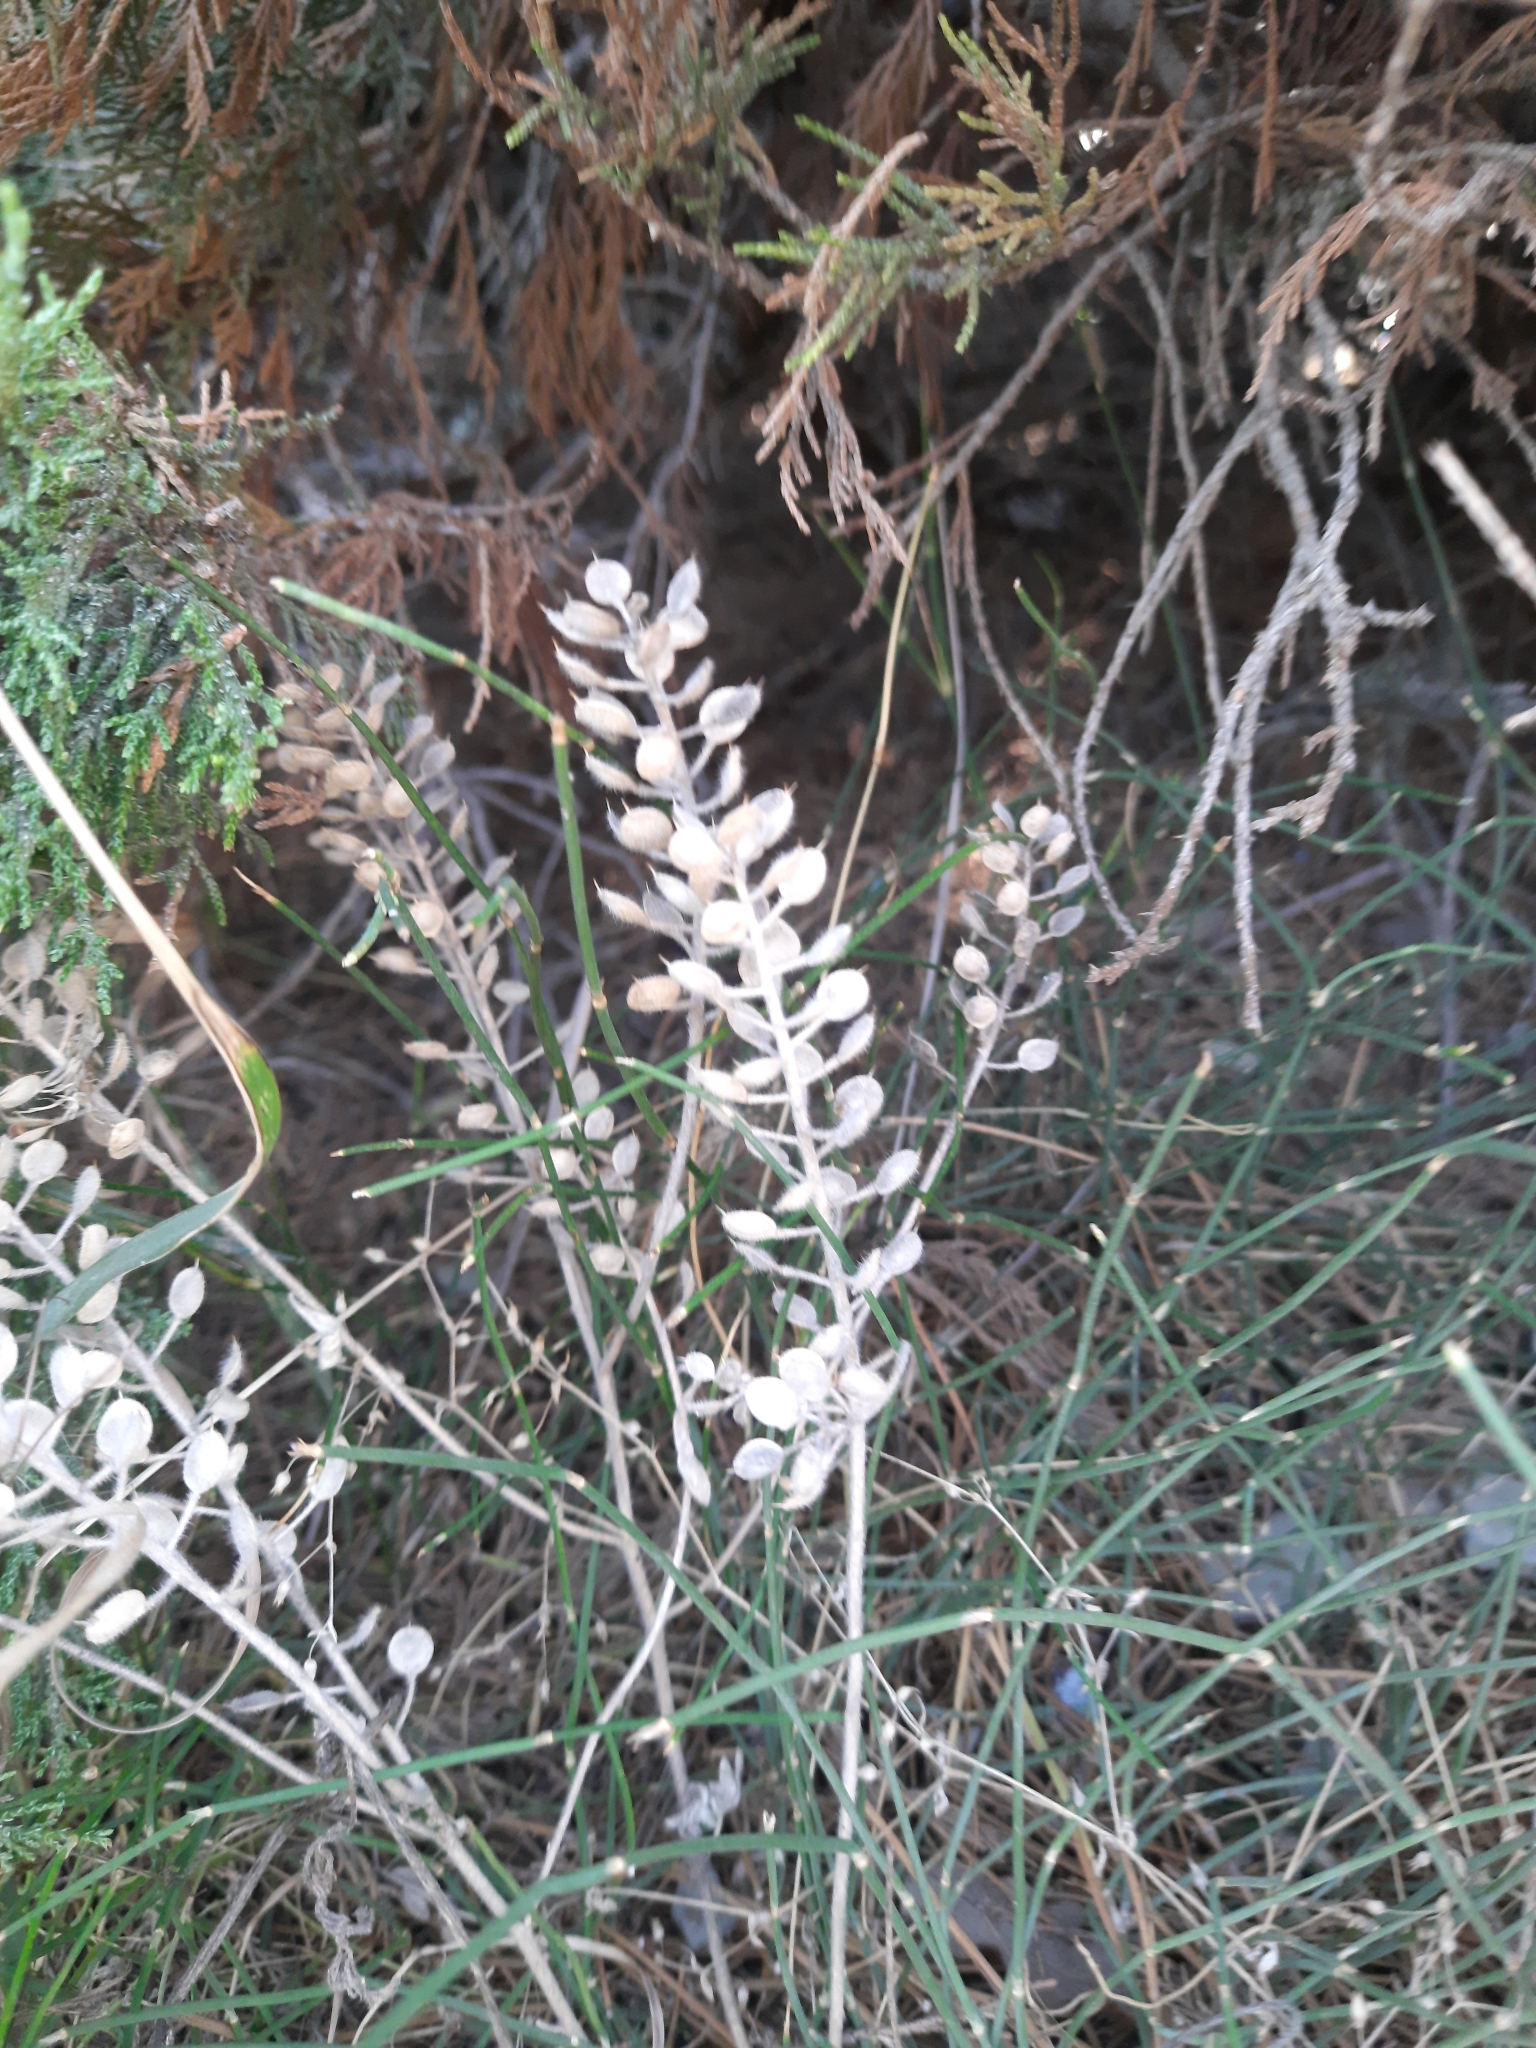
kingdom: Plantae
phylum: Tracheophyta
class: Magnoliopsida
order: Brassicales
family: Brassicaceae
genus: Alyssum
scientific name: Alyssum hirsutum
